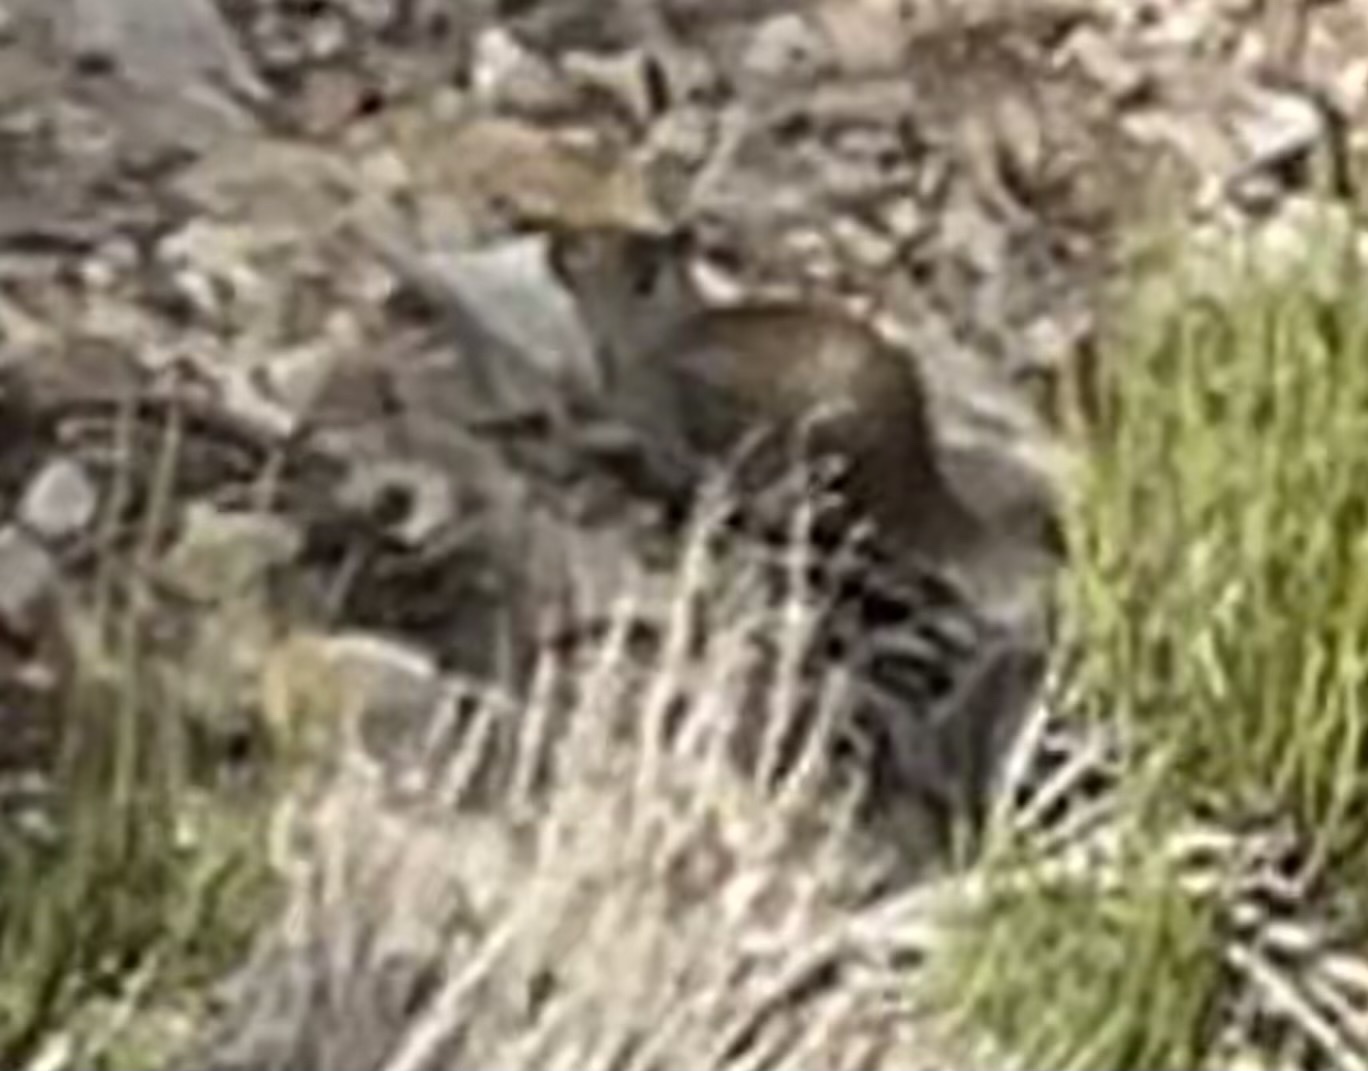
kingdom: Animalia
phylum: Chordata
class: Mammalia
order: Rodentia
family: Sciuridae
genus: Otospermophilus
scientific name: Otospermophilus variegatus
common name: Rock squirrel
